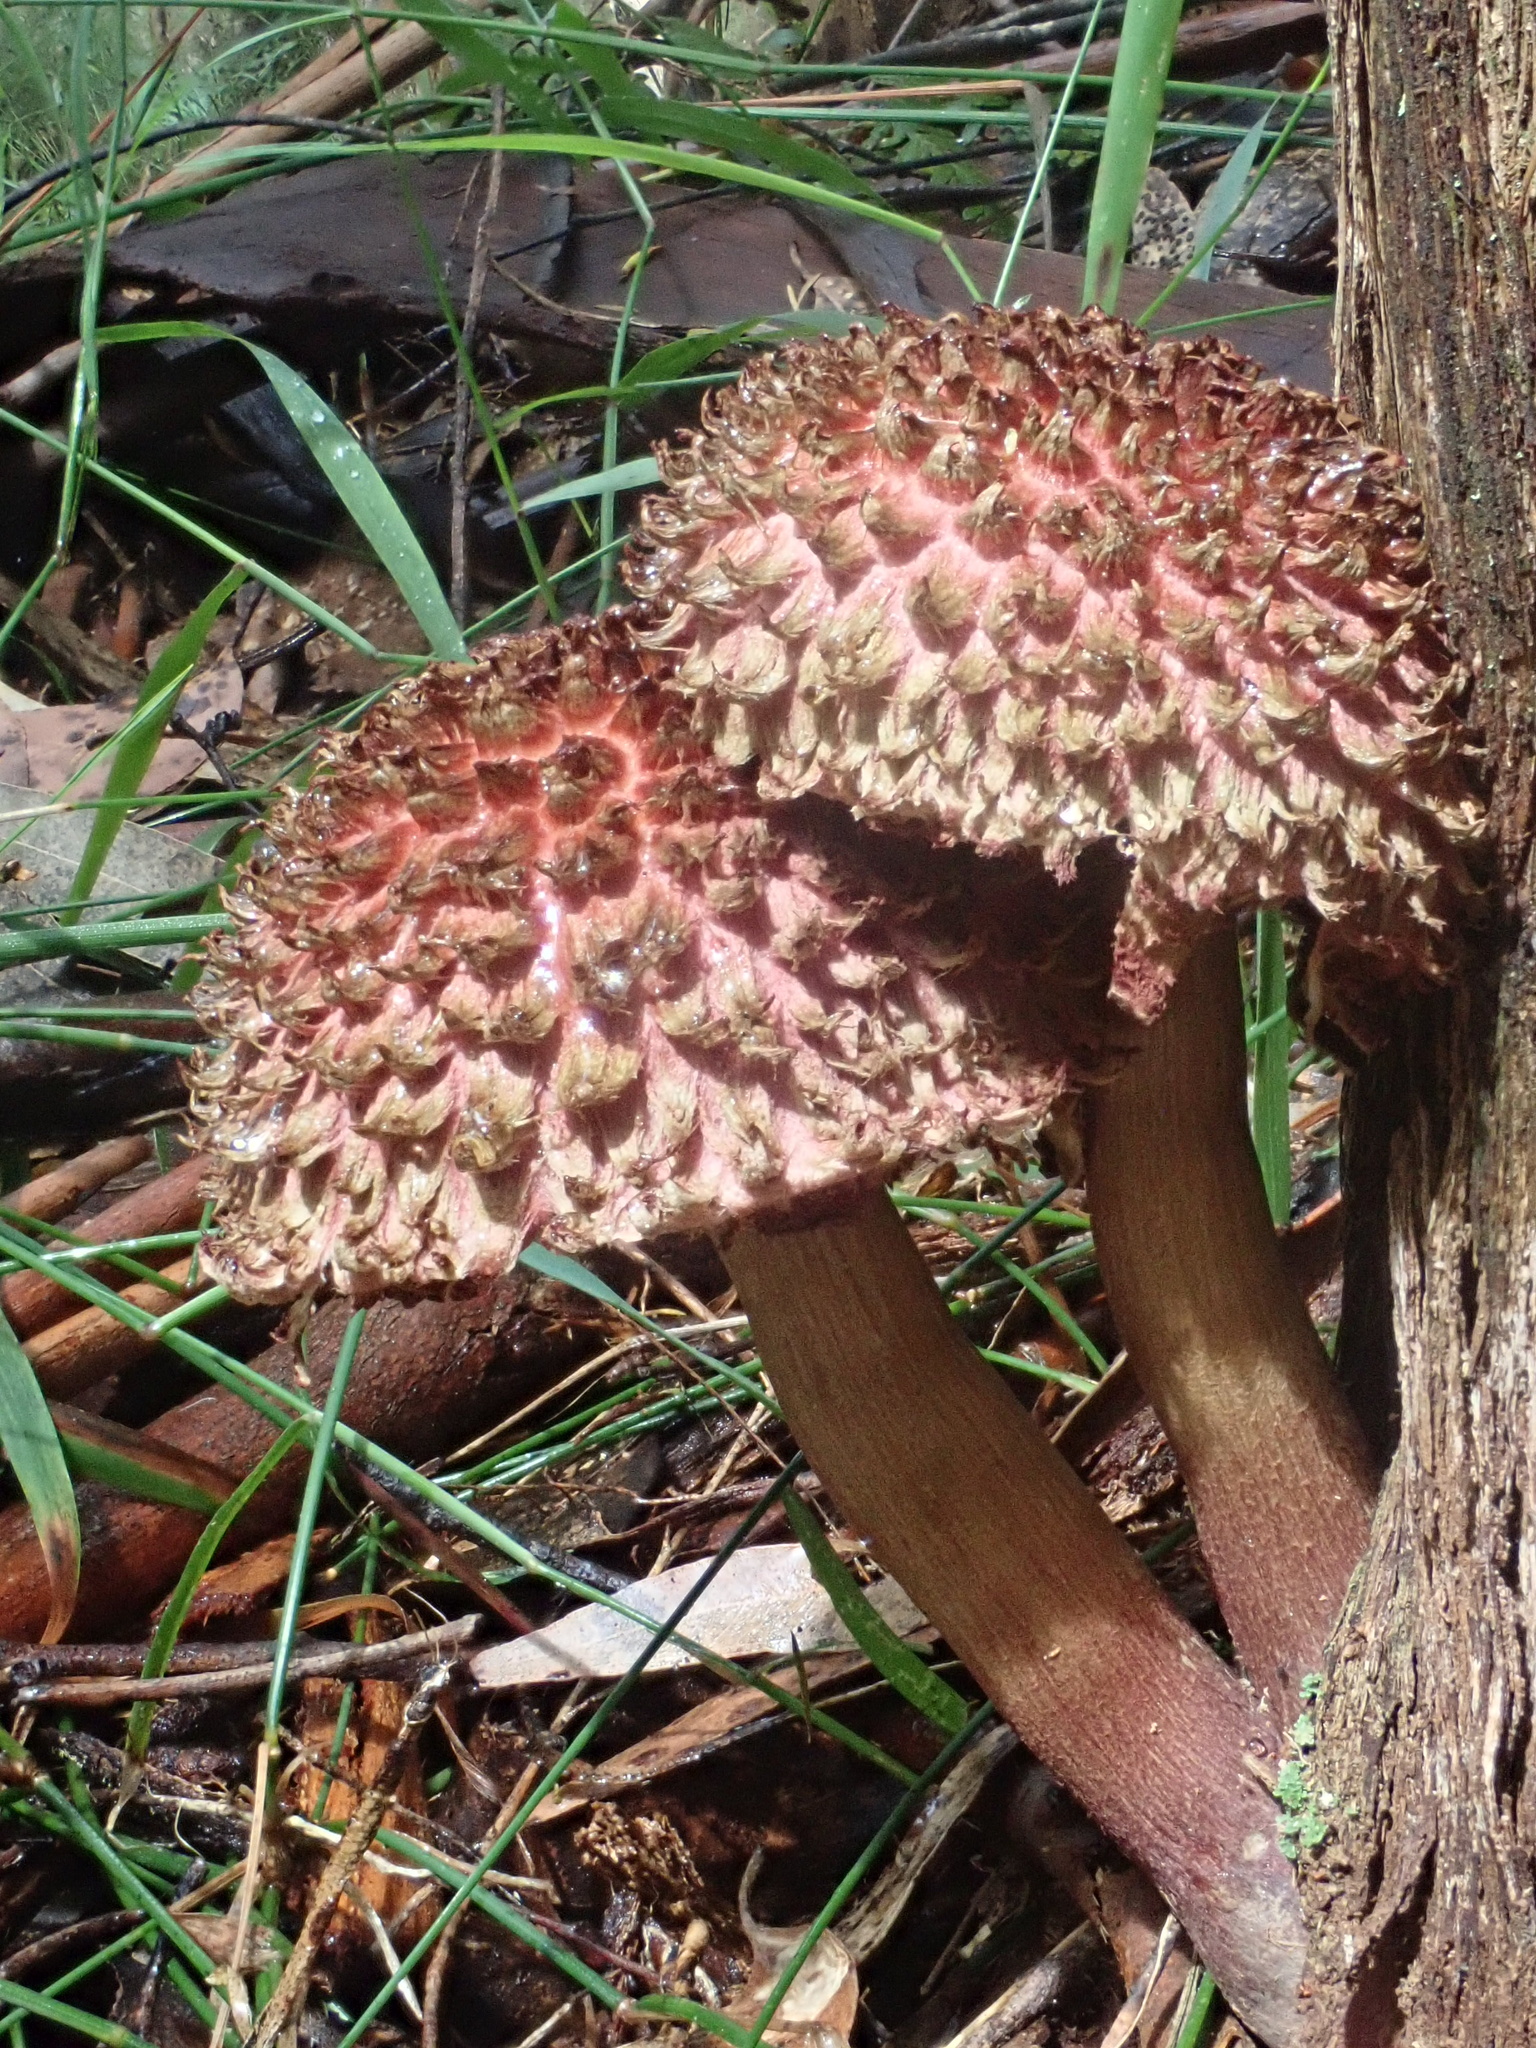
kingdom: Fungi
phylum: Basidiomycota
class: Agaricomycetes
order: Boletales
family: Boletaceae
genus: Boletellus
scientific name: Boletellus emodensis
